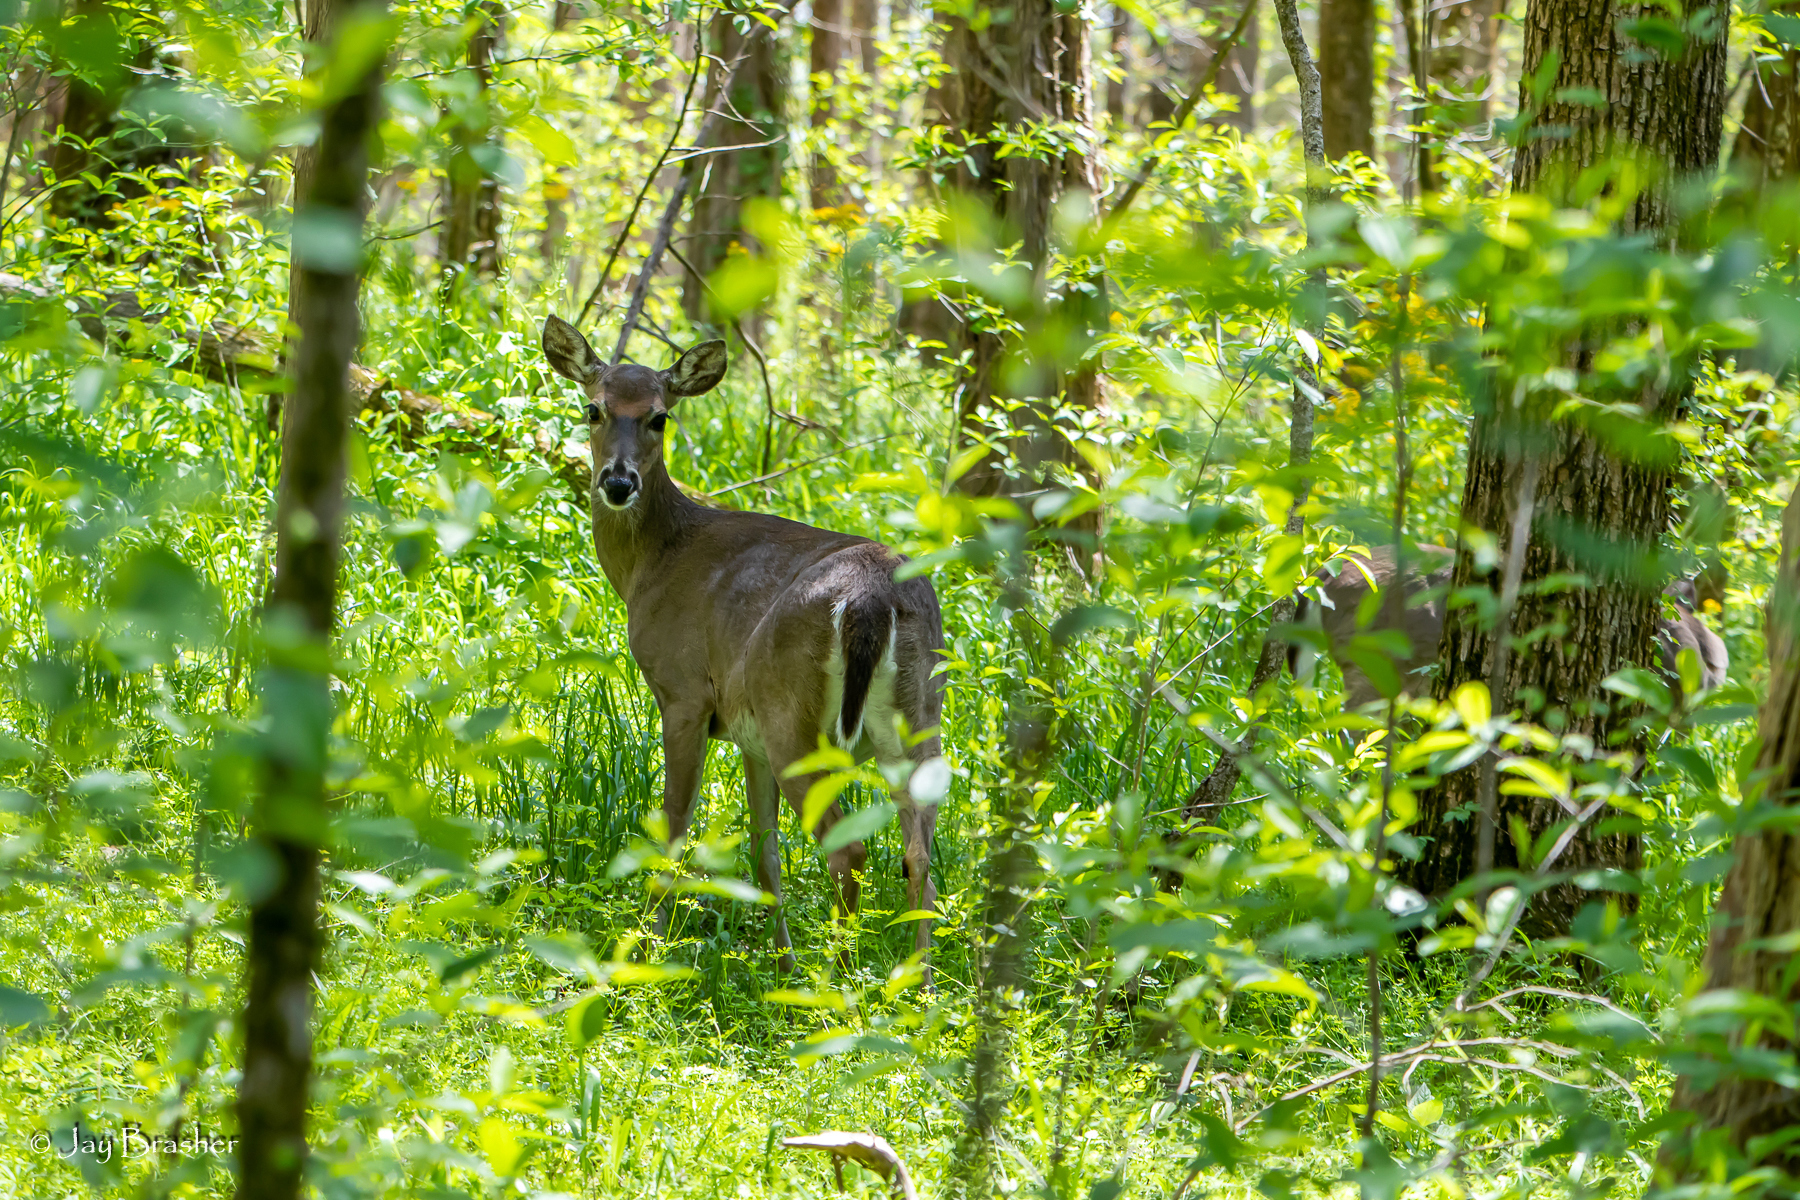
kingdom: Animalia
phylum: Chordata
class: Mammalia
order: Artiodactyla
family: Cervidae
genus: Odocoileus
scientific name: Odocoileus virginianus
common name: White-tailed deer
